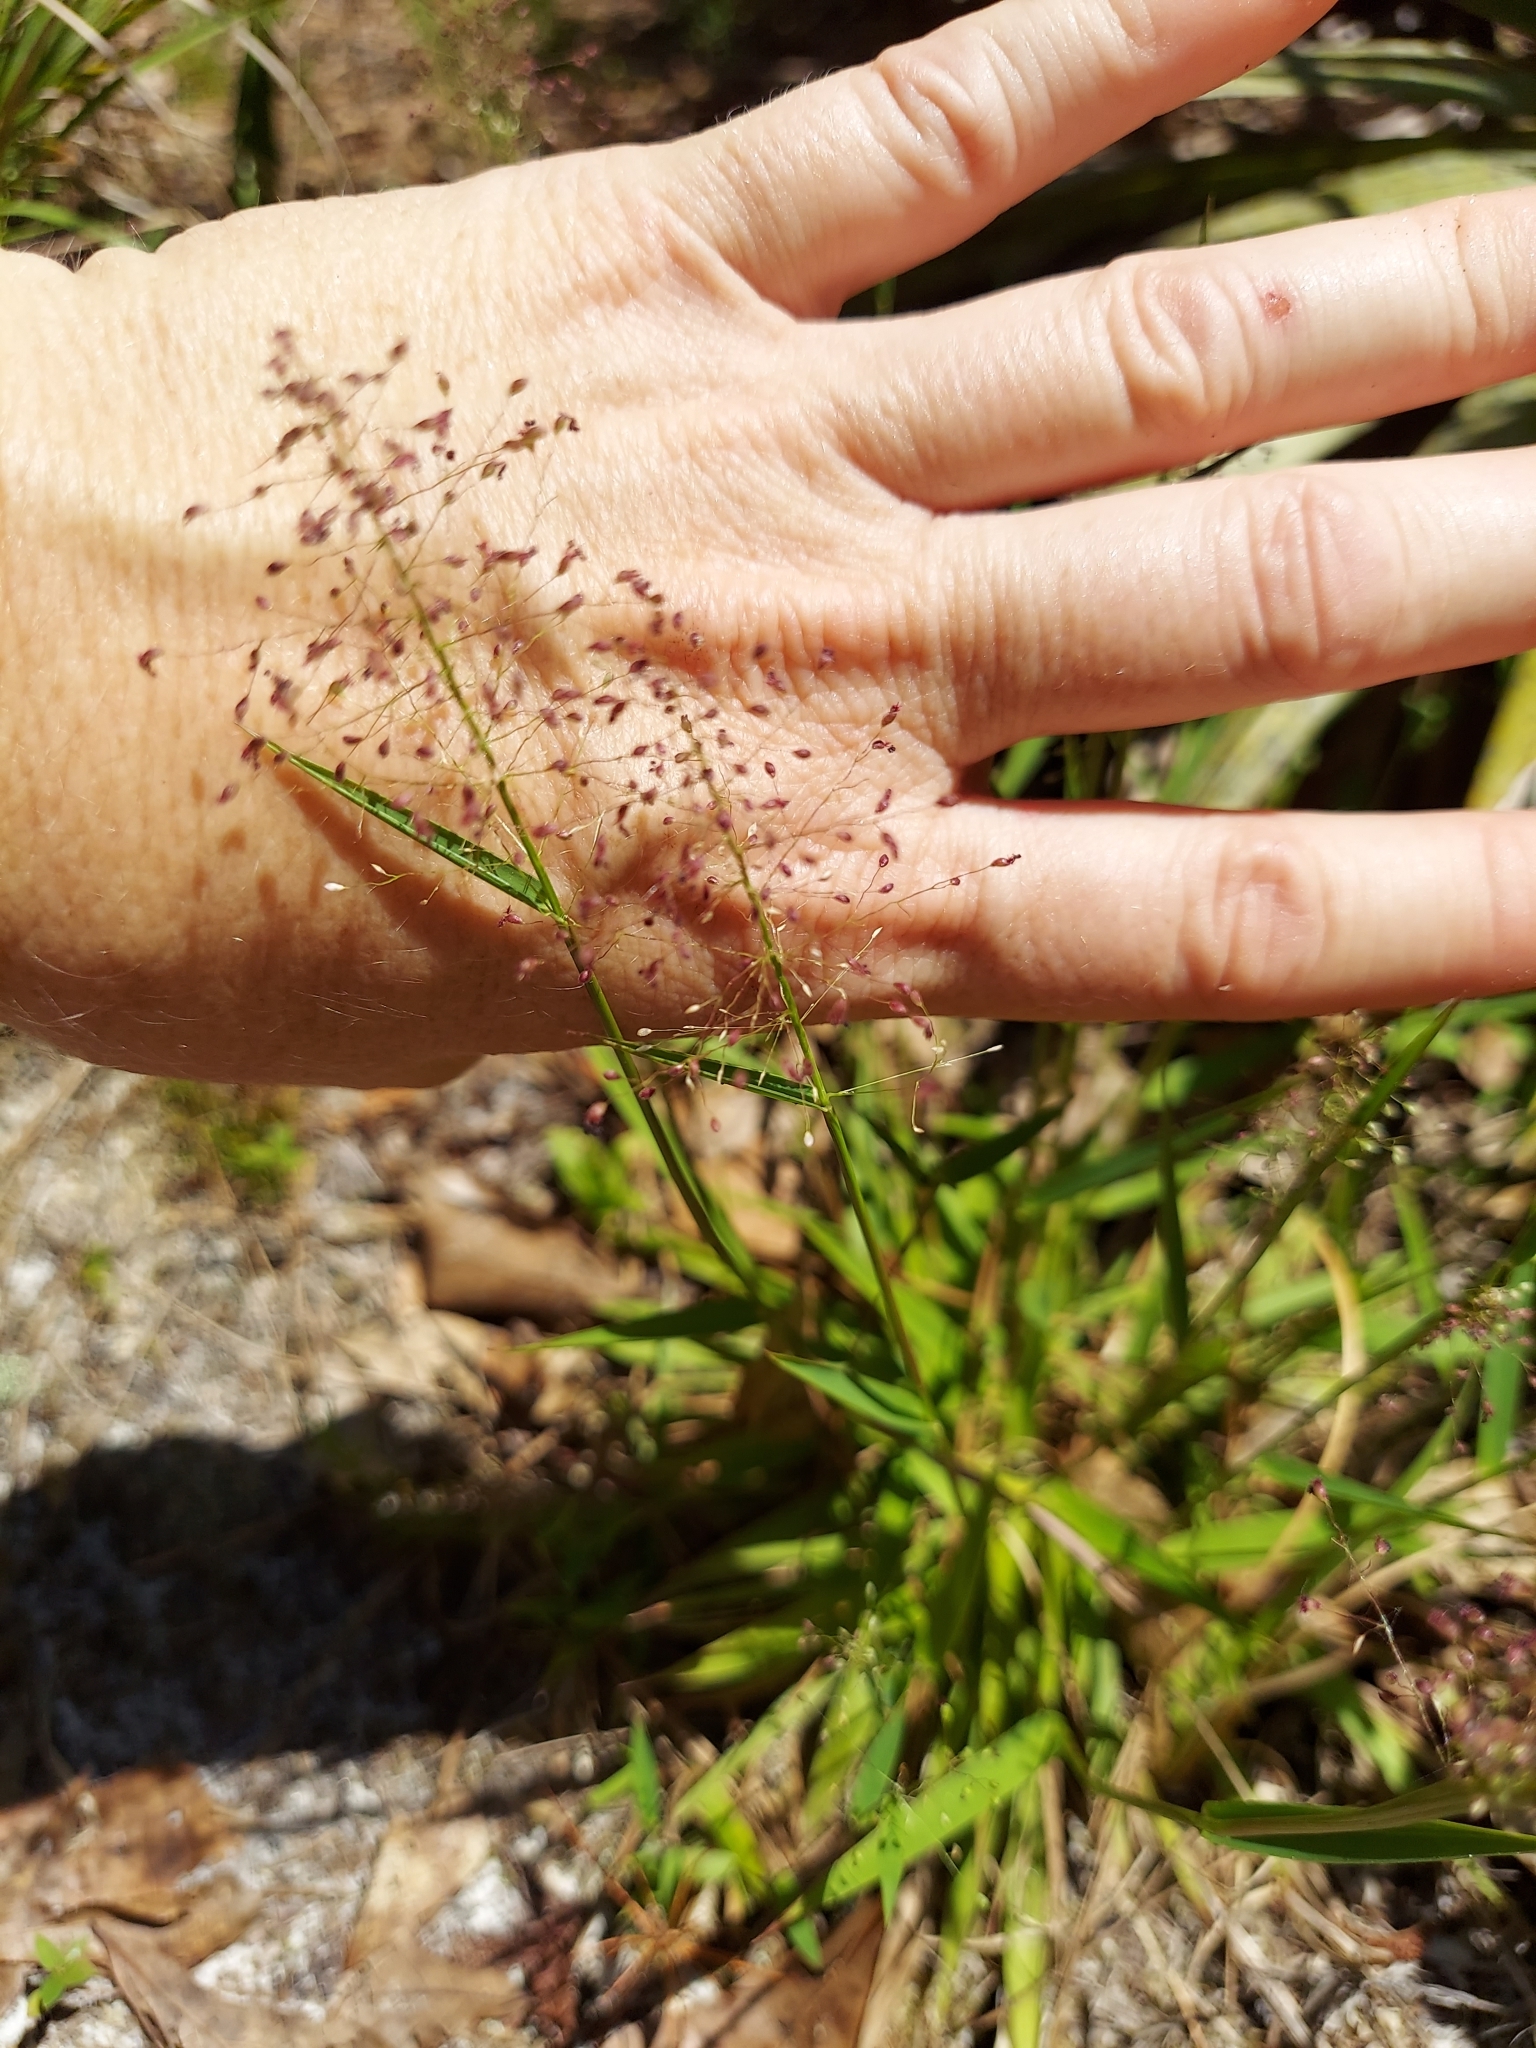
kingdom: Plantae
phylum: Tracheophyta
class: Liliopsida
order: Poales
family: Poaceae
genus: Dichanthelium
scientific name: Dichanthelium
